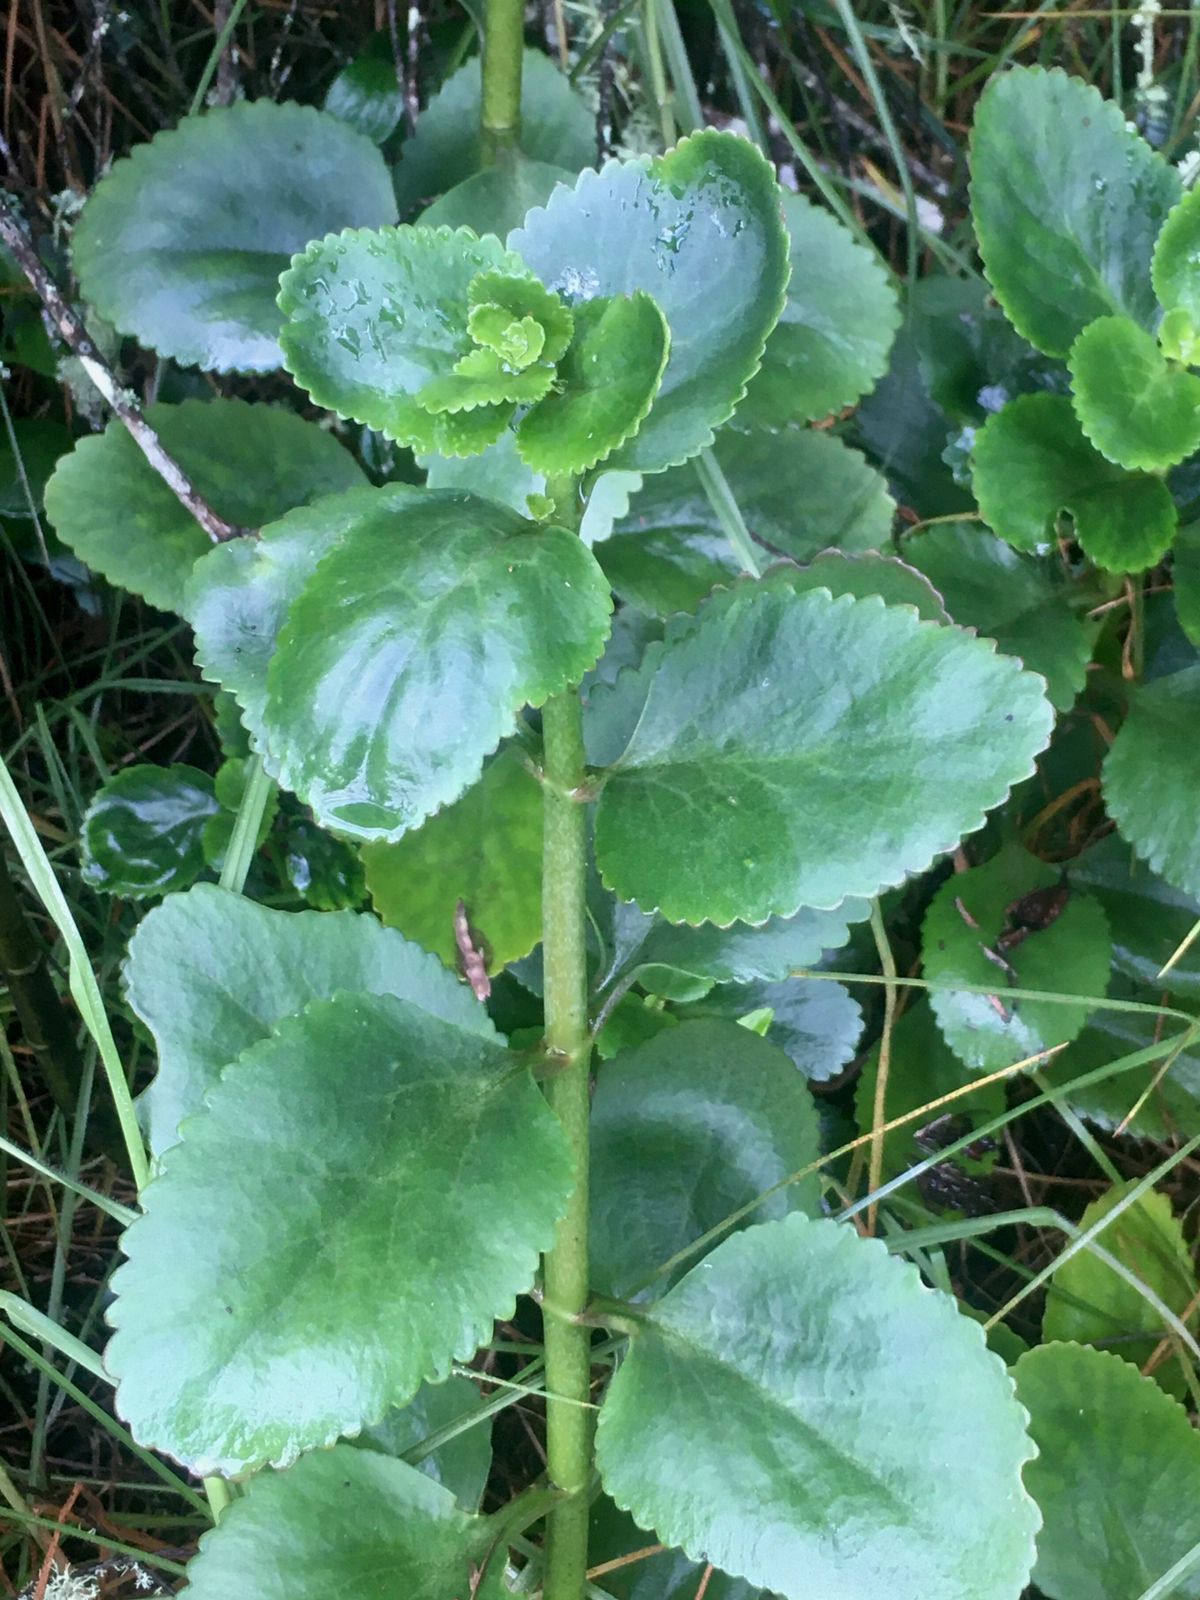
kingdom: Plantae
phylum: Tracheophyta
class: Magnoliopsida
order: Saxifragales
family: Crassulaceae
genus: Kalanchoe
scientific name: Kalanchoe densiflora
